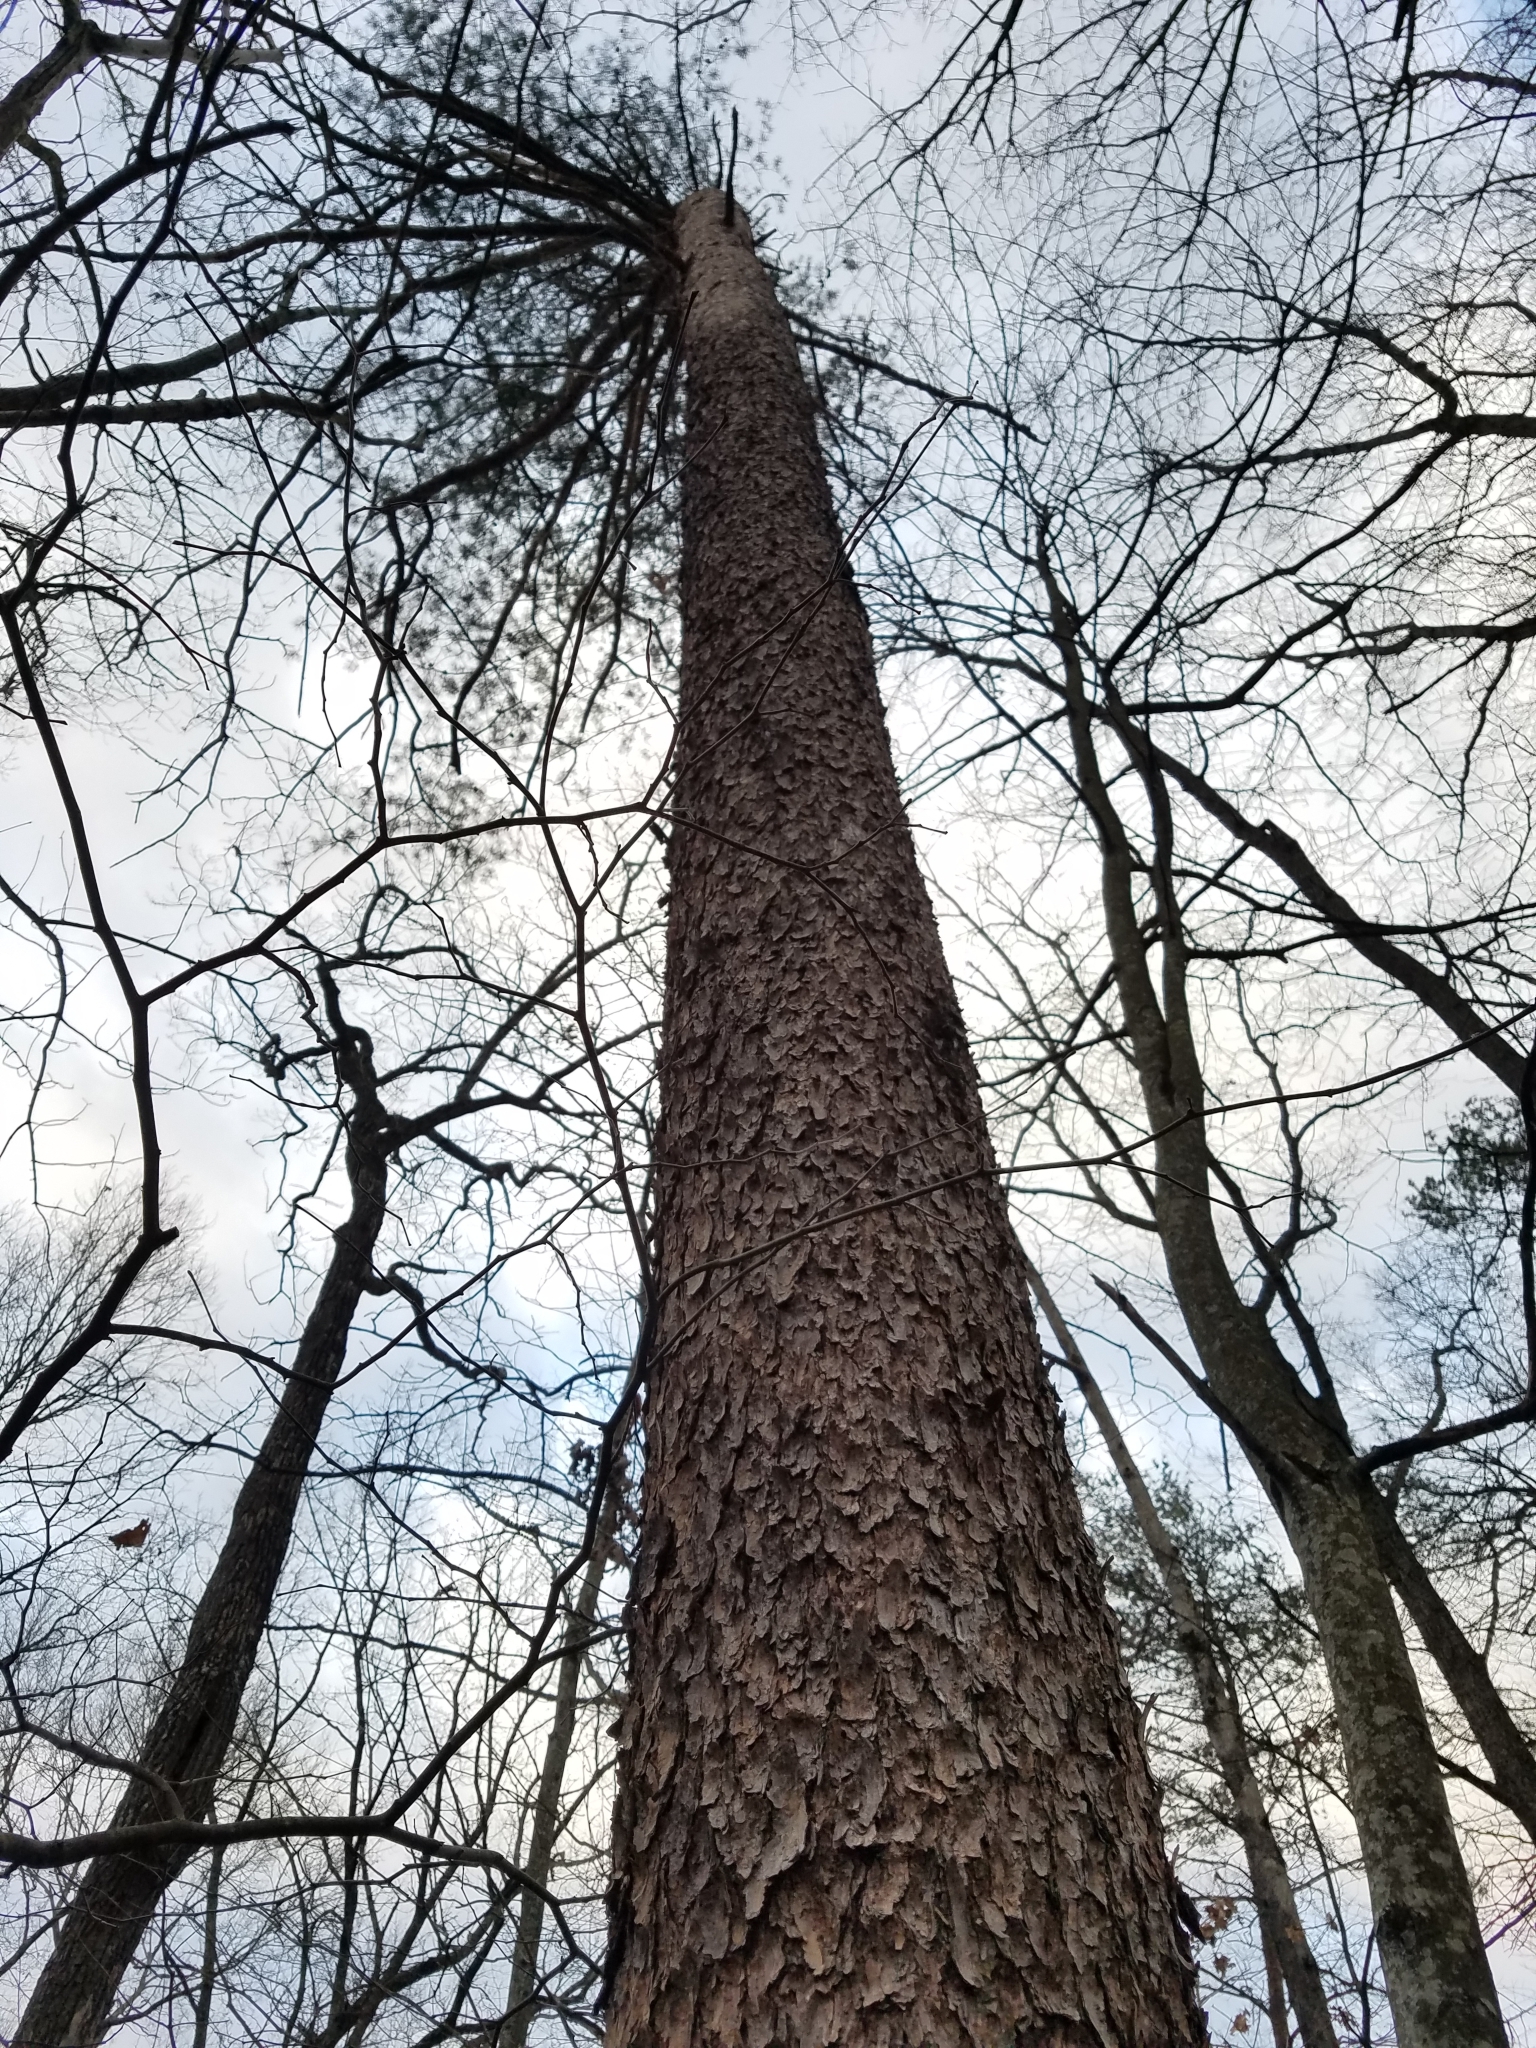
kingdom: Plantae
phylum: Tracheophyta
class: Pinopsida
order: Pinales
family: Pinaceae
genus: Pinus
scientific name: Pinus virginiana
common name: Scrub pine
